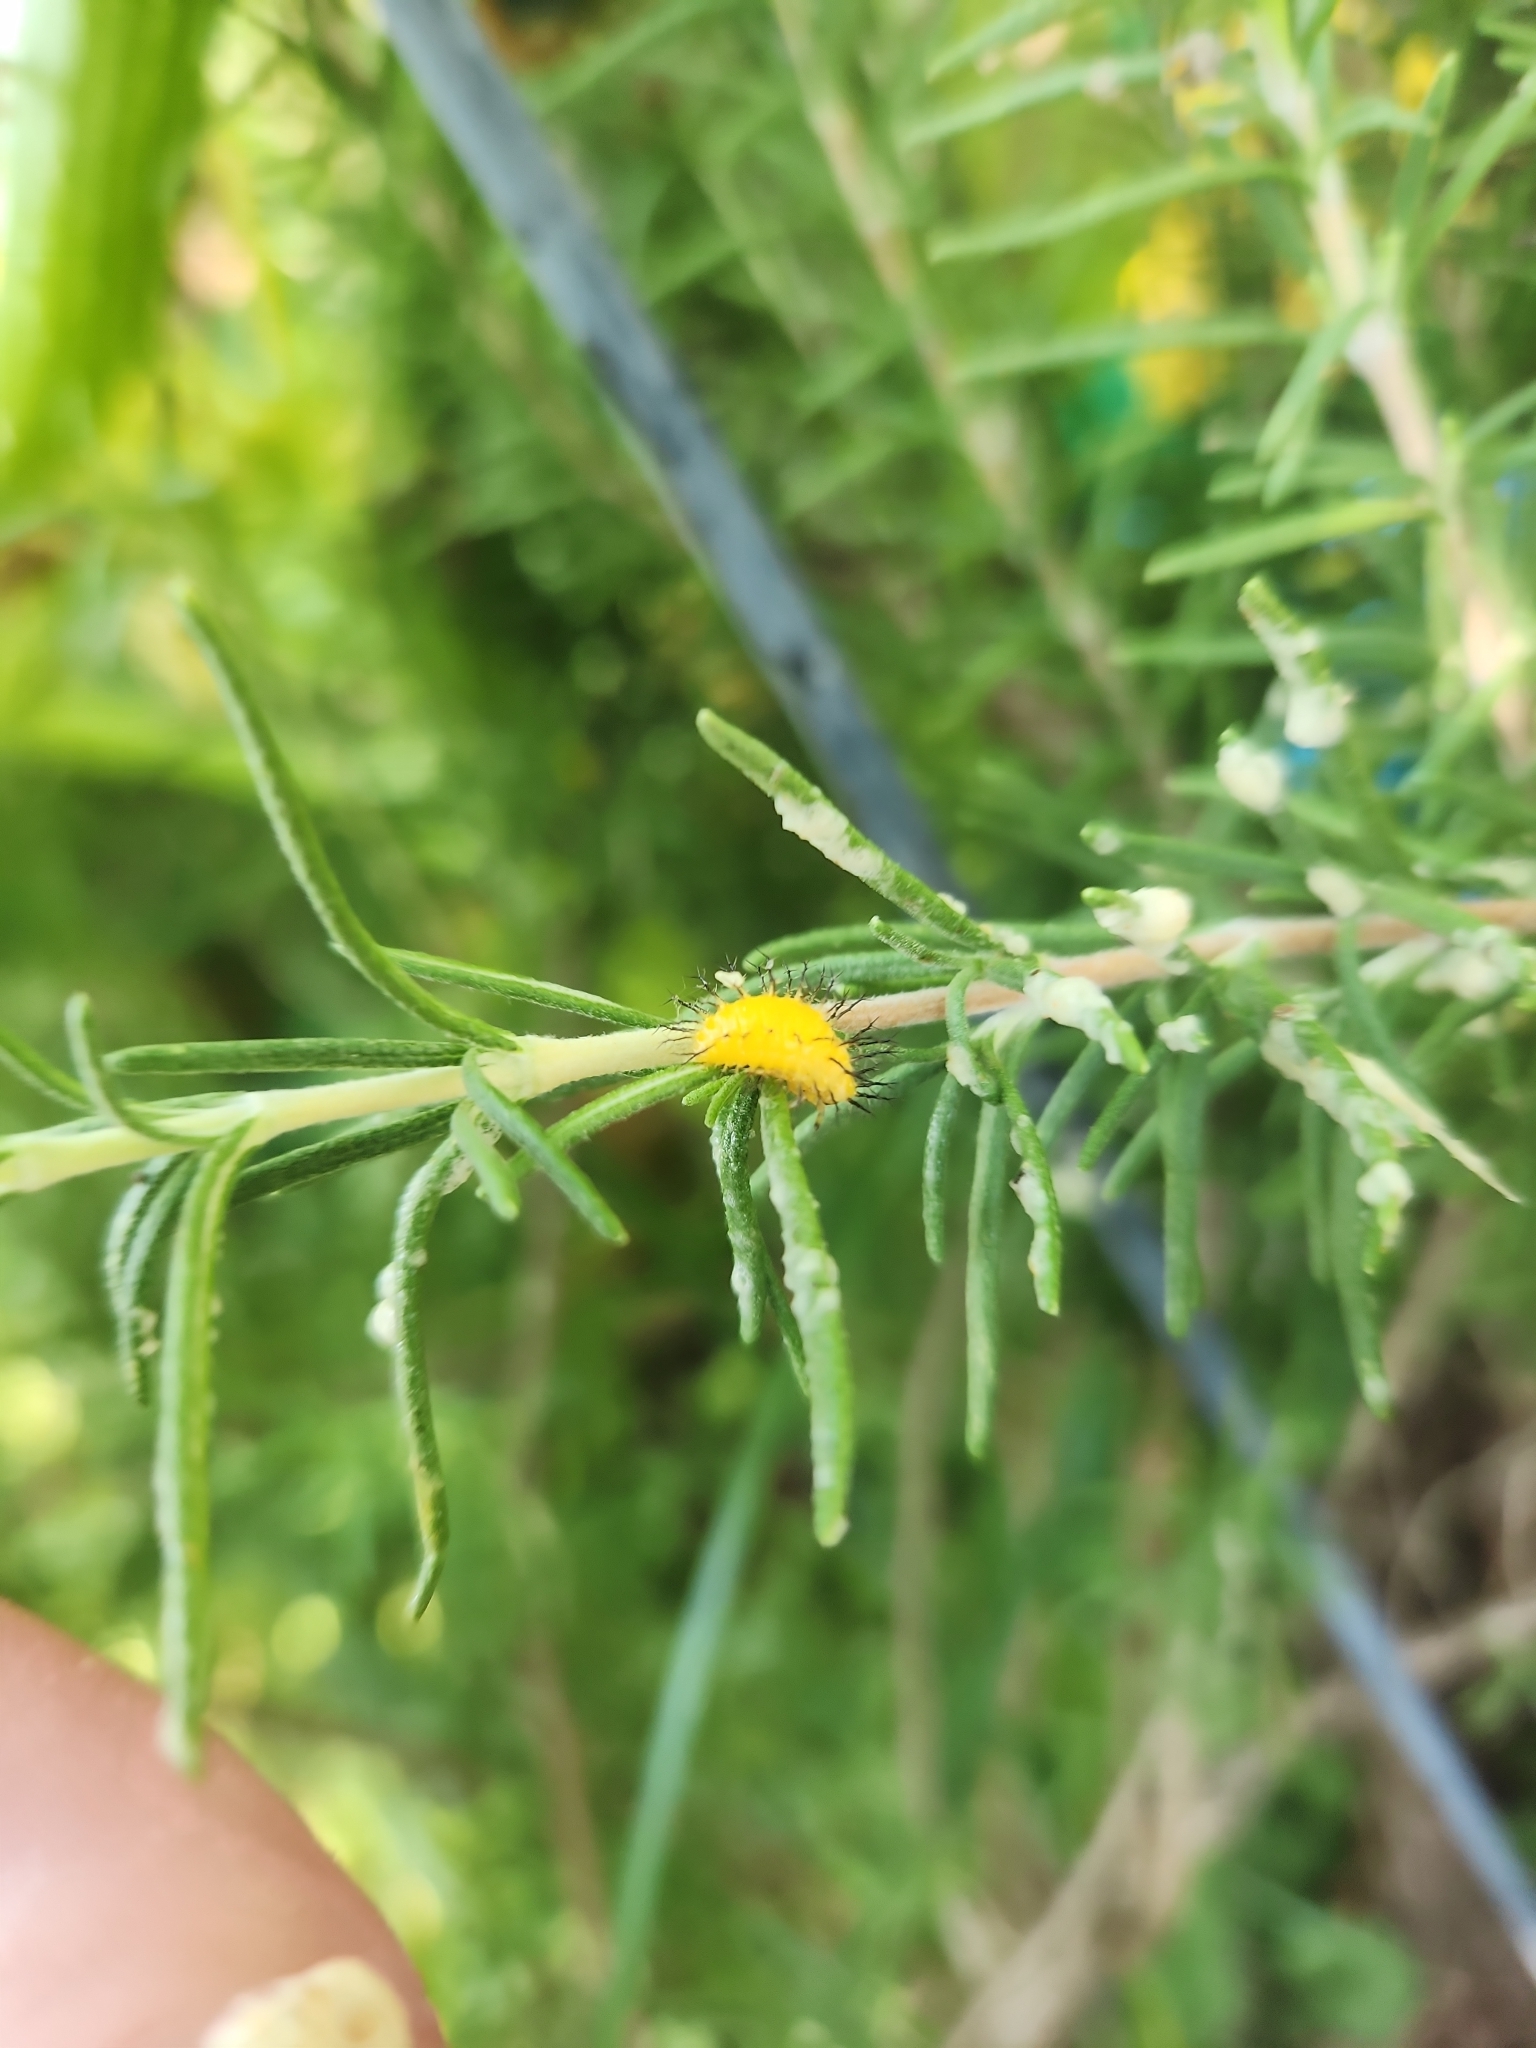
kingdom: Animalia
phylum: Arthropoda
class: Insecta
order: Coleoptera
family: Coccinellidae
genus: Epilachna
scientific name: Epilachna borealis
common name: Squash beetle
